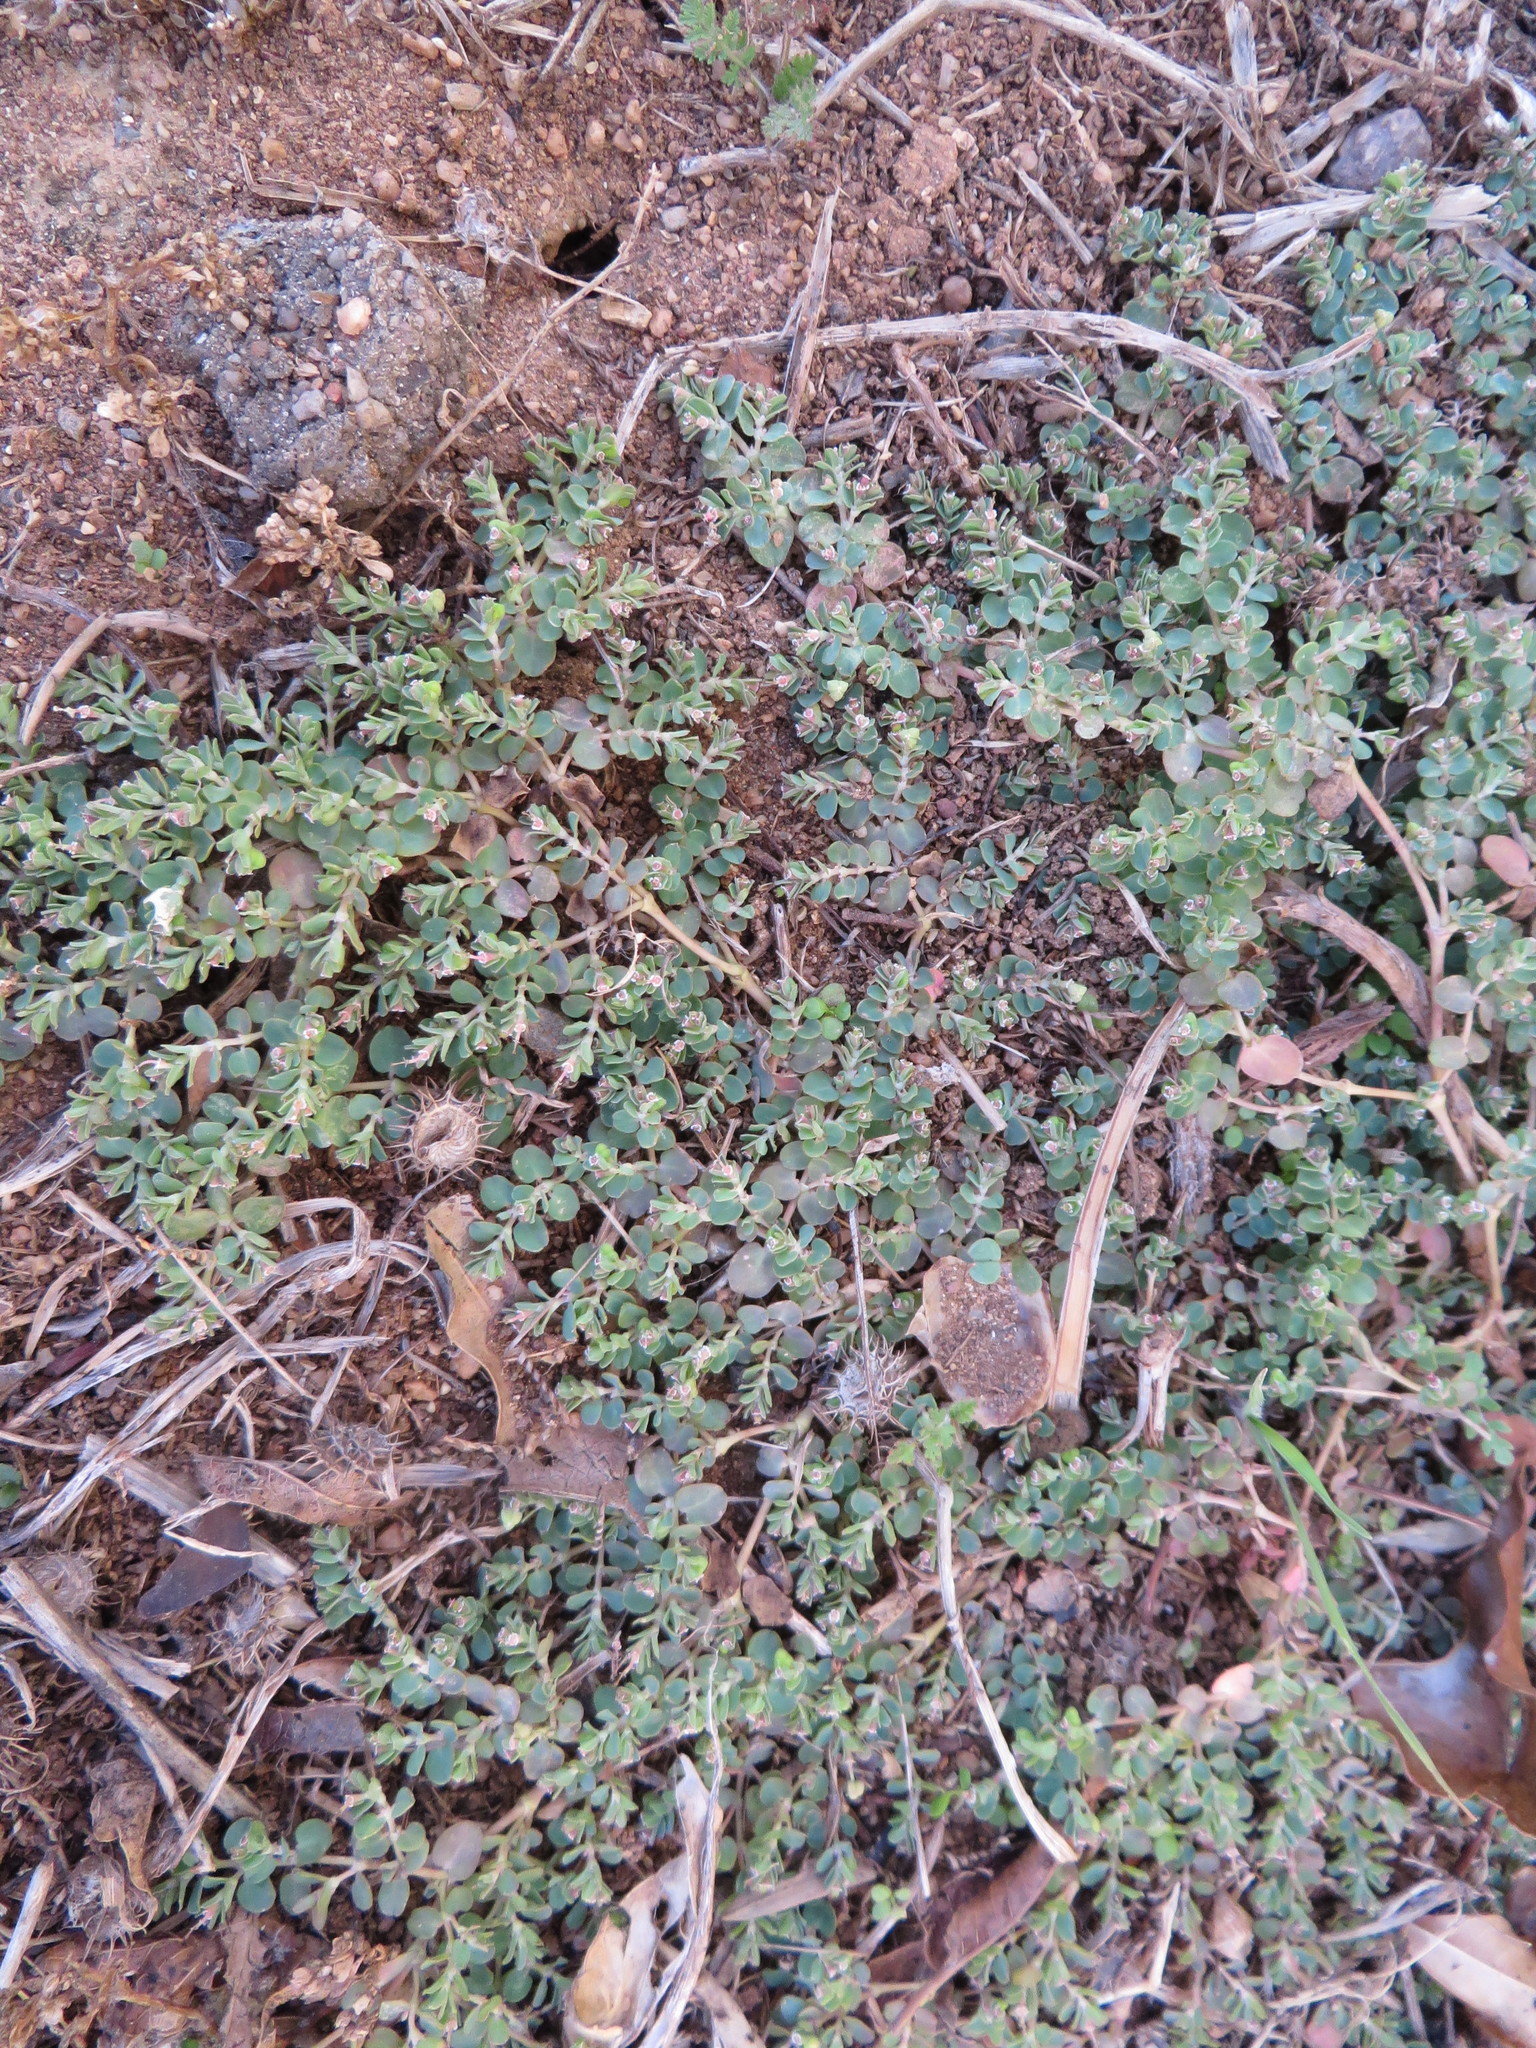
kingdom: Plantae
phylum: Tracheophyta
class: Magnoliopsida
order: Malpighiales
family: Euphorbiaceae
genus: Euphorbia
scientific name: Euphorbia serpens
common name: Matted sandmat
